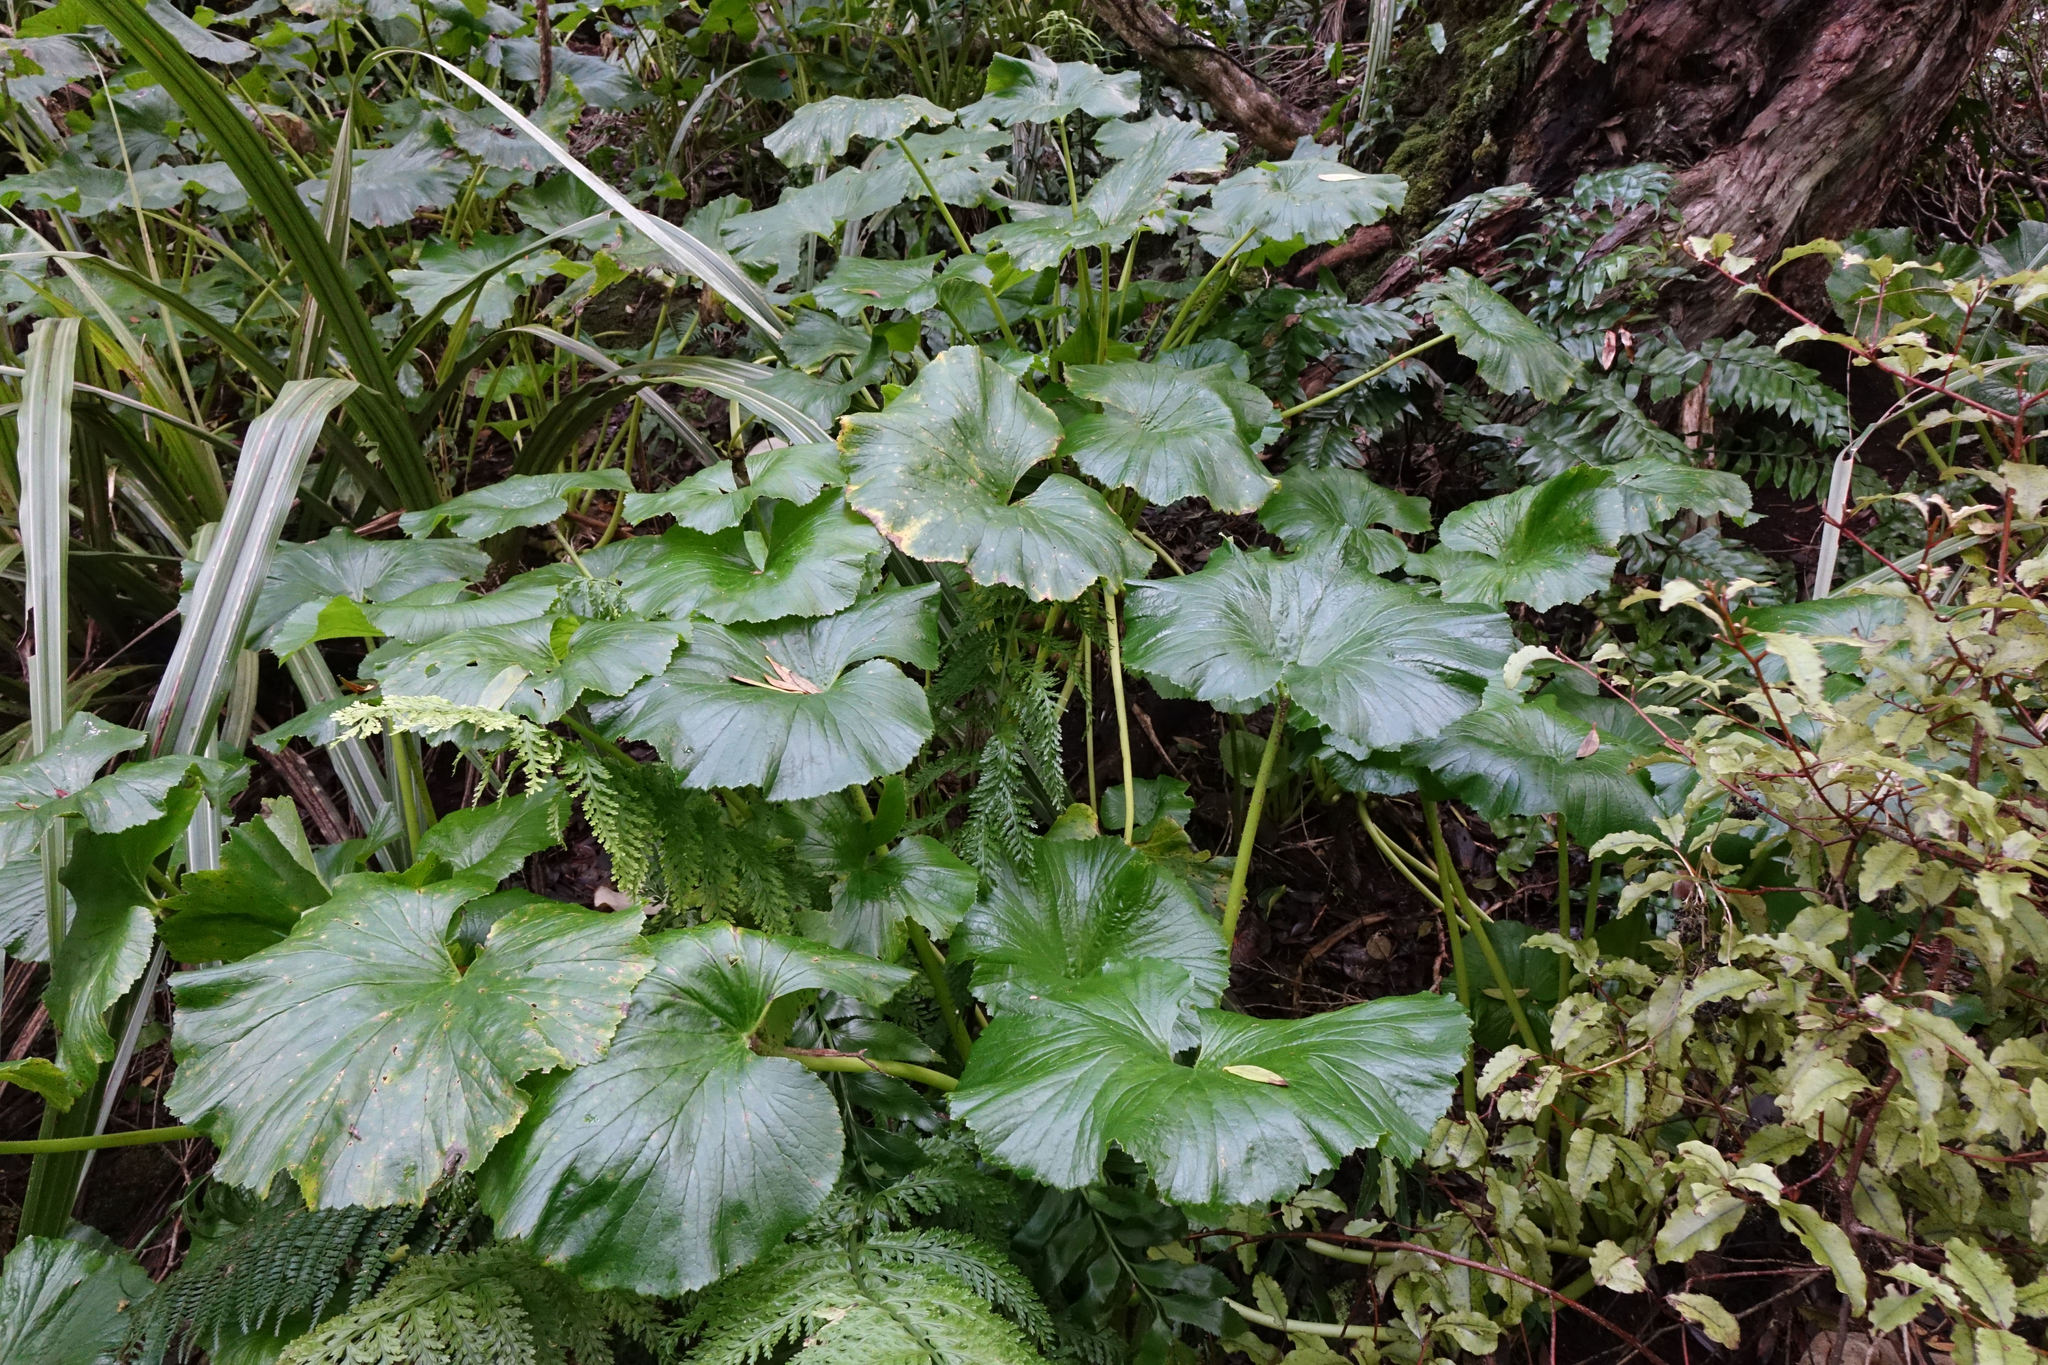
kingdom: Plantae
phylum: Tracheophyta
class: Magnoliopsida
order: Apiales
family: Apiaceae
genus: Azorella
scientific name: Azorella lyallii
